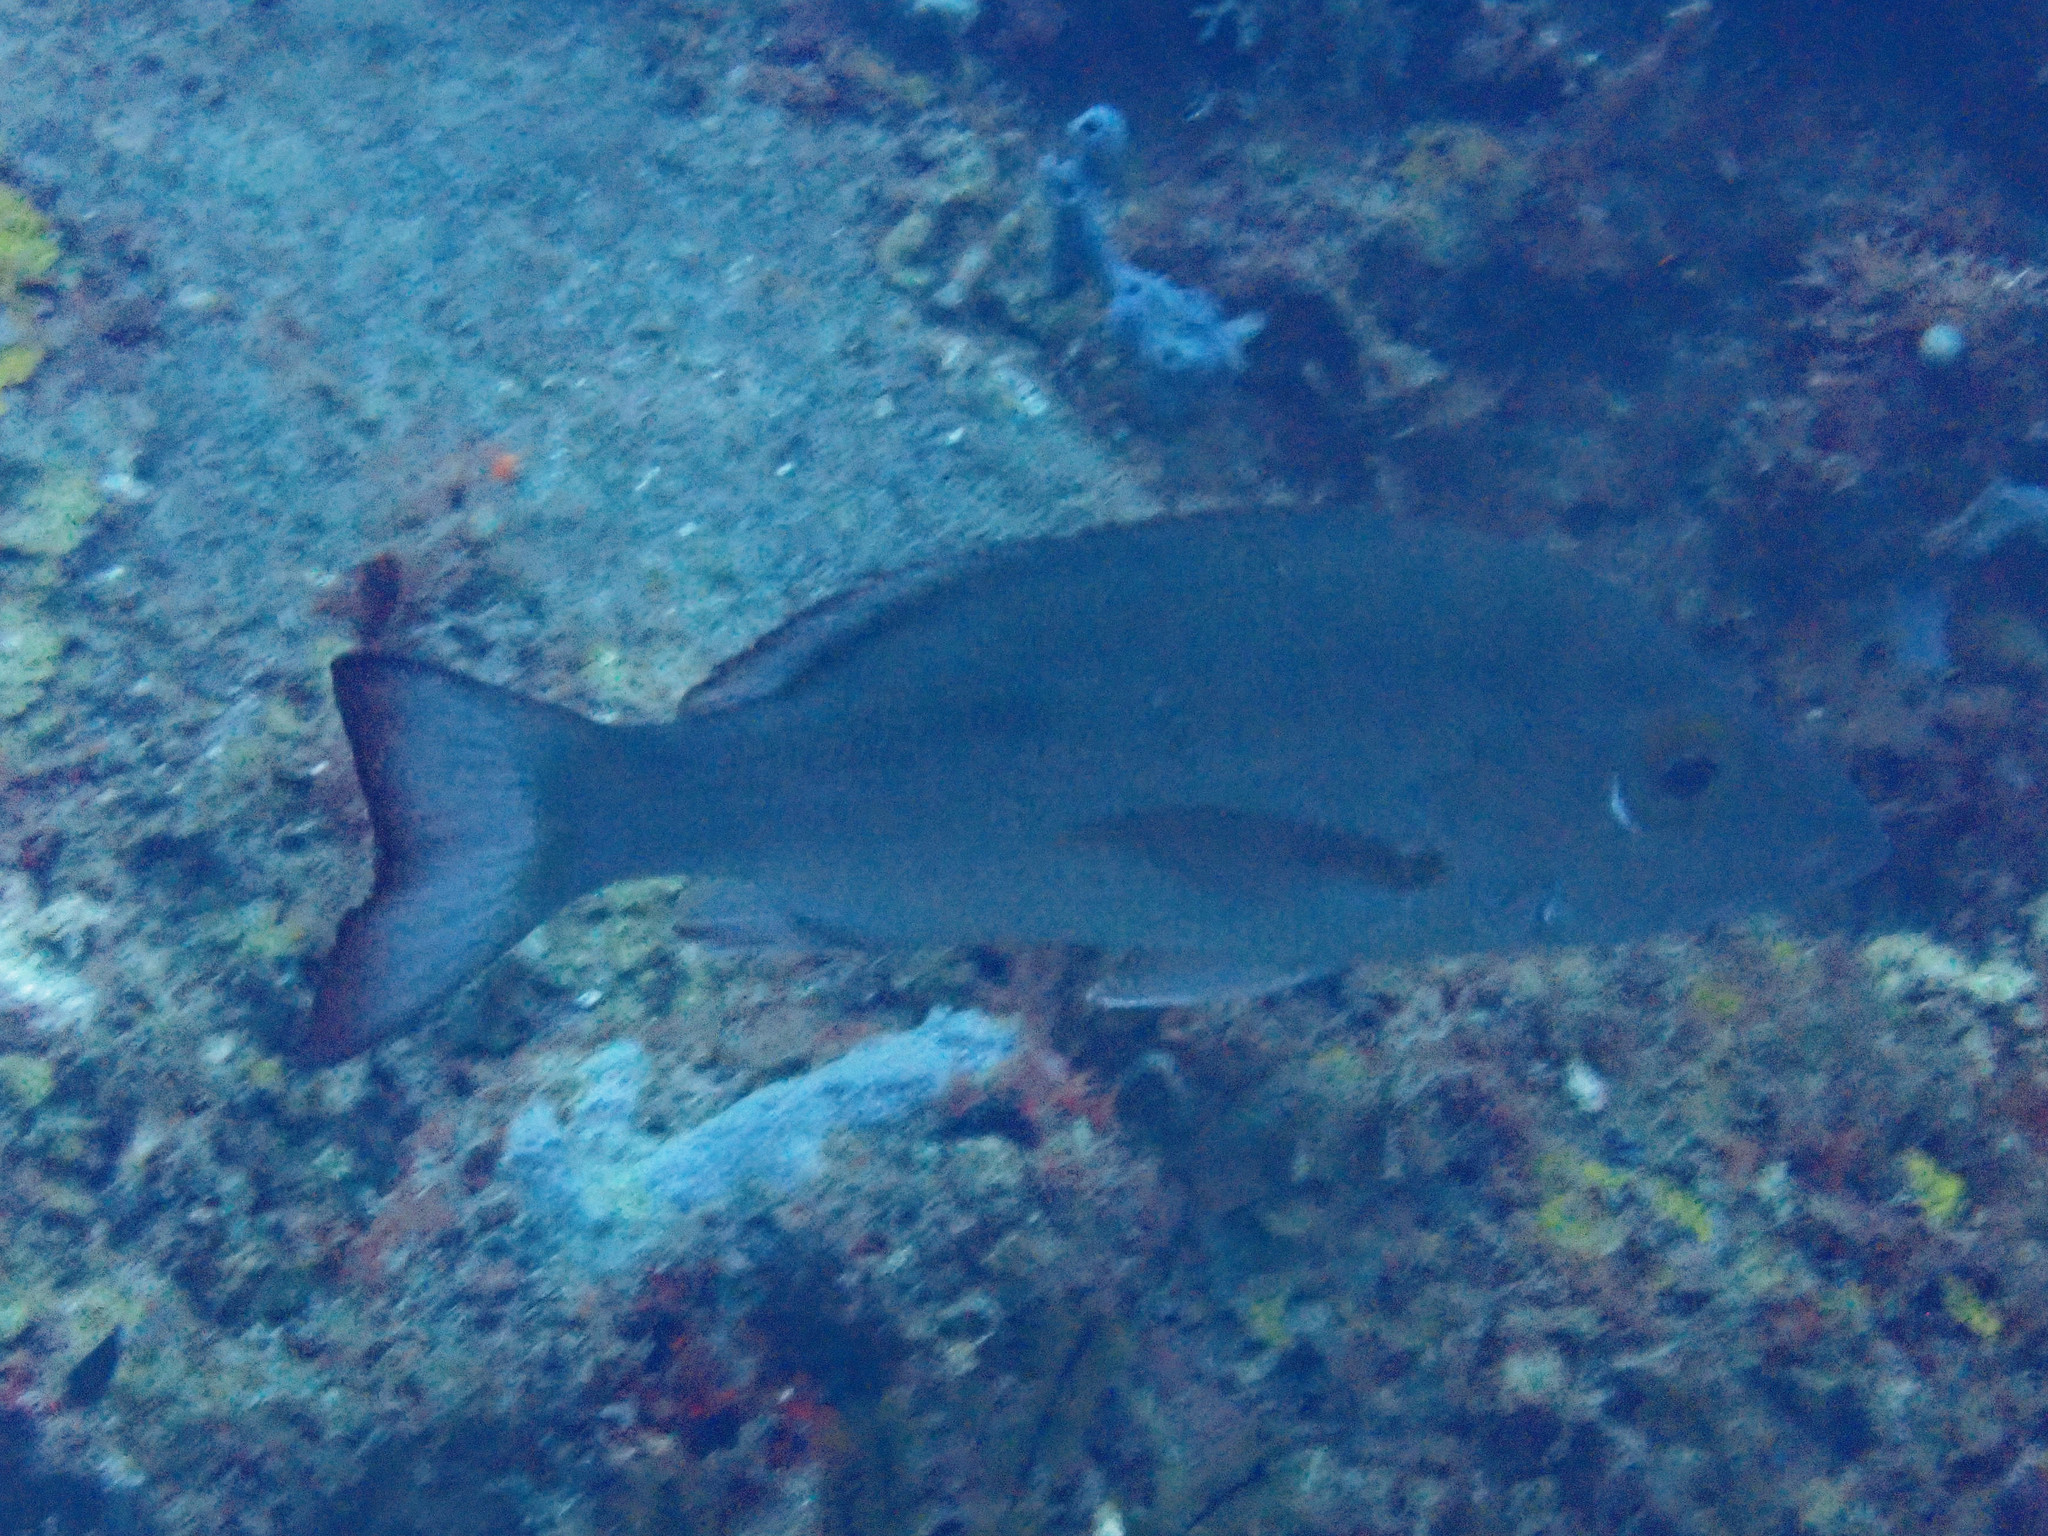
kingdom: Animalia
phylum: Chordata
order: Perciformes
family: Lutjanidae
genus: Lutjanus
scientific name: Lutjanus mahogoni
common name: Spot snapper
